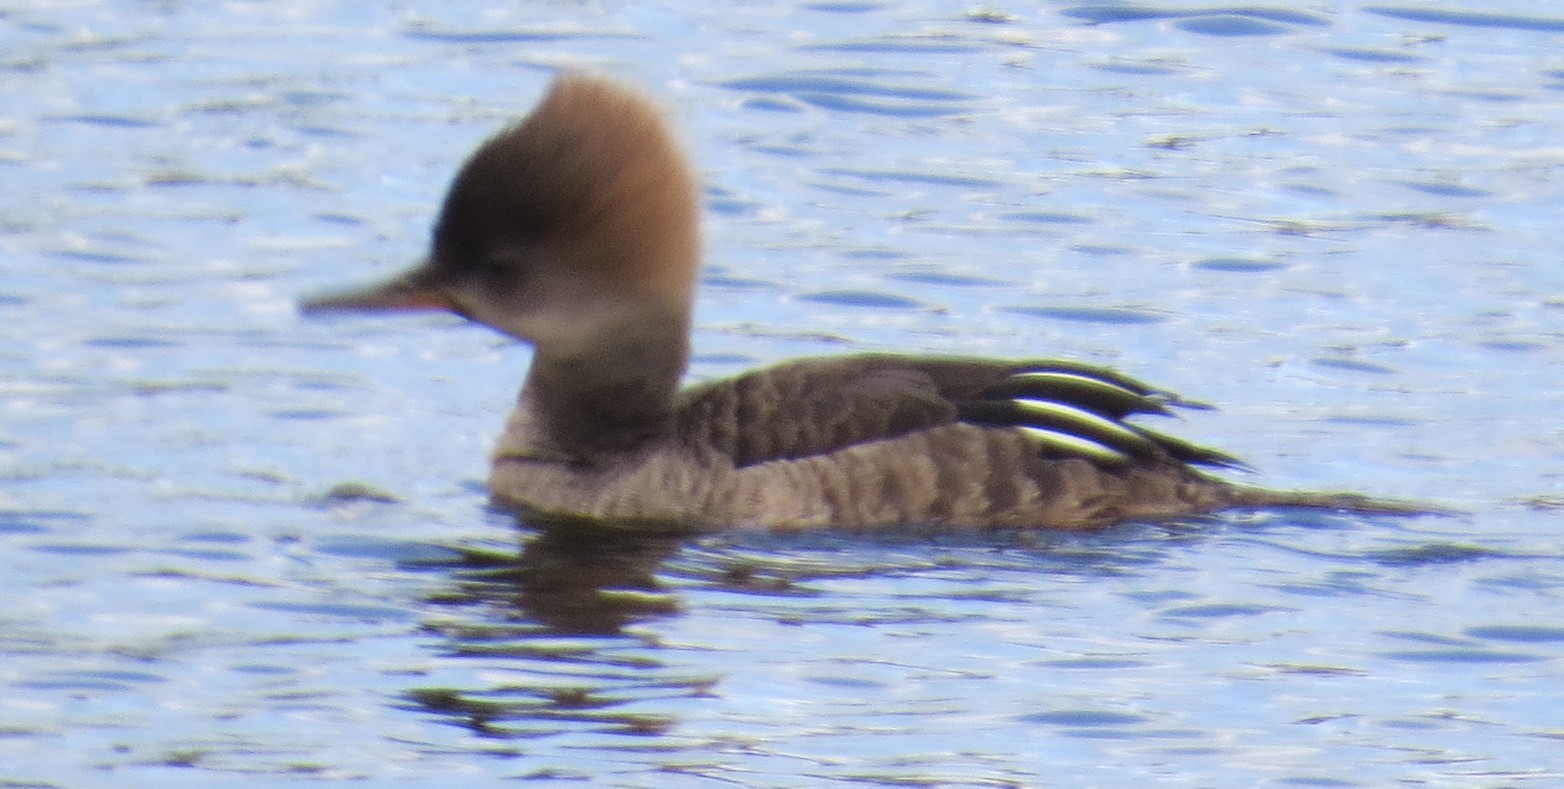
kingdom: Animalia
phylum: Chordata
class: Aves
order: Anseriformes
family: Anatidae
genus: Lophodytes
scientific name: Lophodytes cucullatus
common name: Hooded merganser
